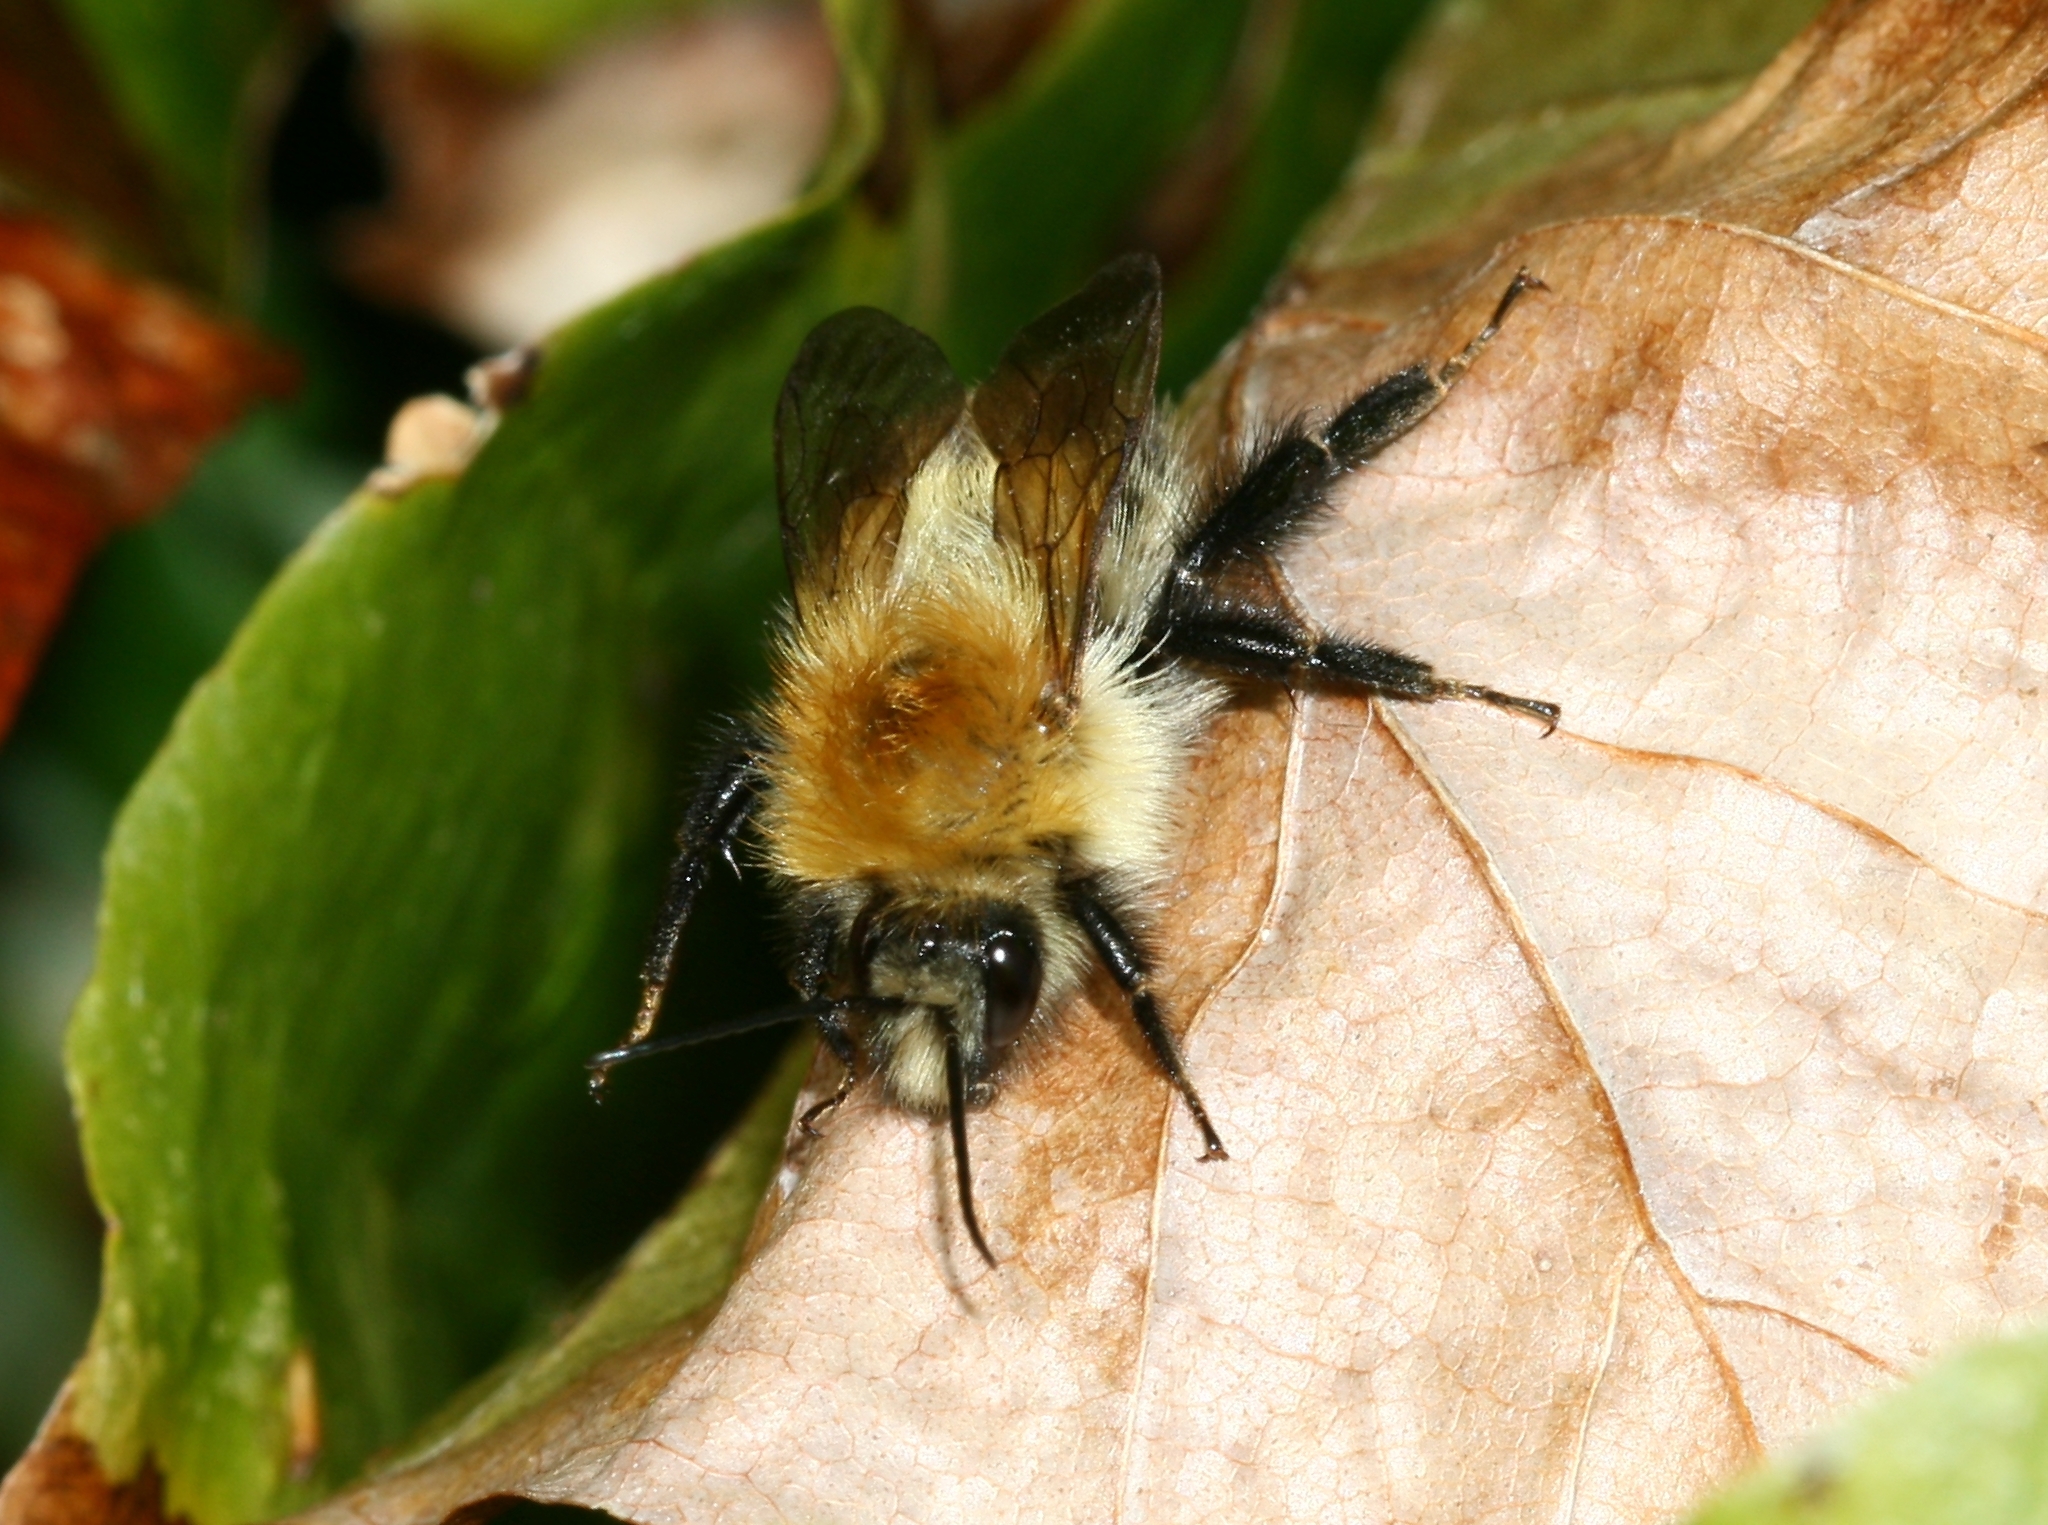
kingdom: Animalia
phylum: Arthropoda
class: Insecta
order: Hymenoptera
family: Apidae
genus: Bombus
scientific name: Bombus pascuorum
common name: Common carder bee
